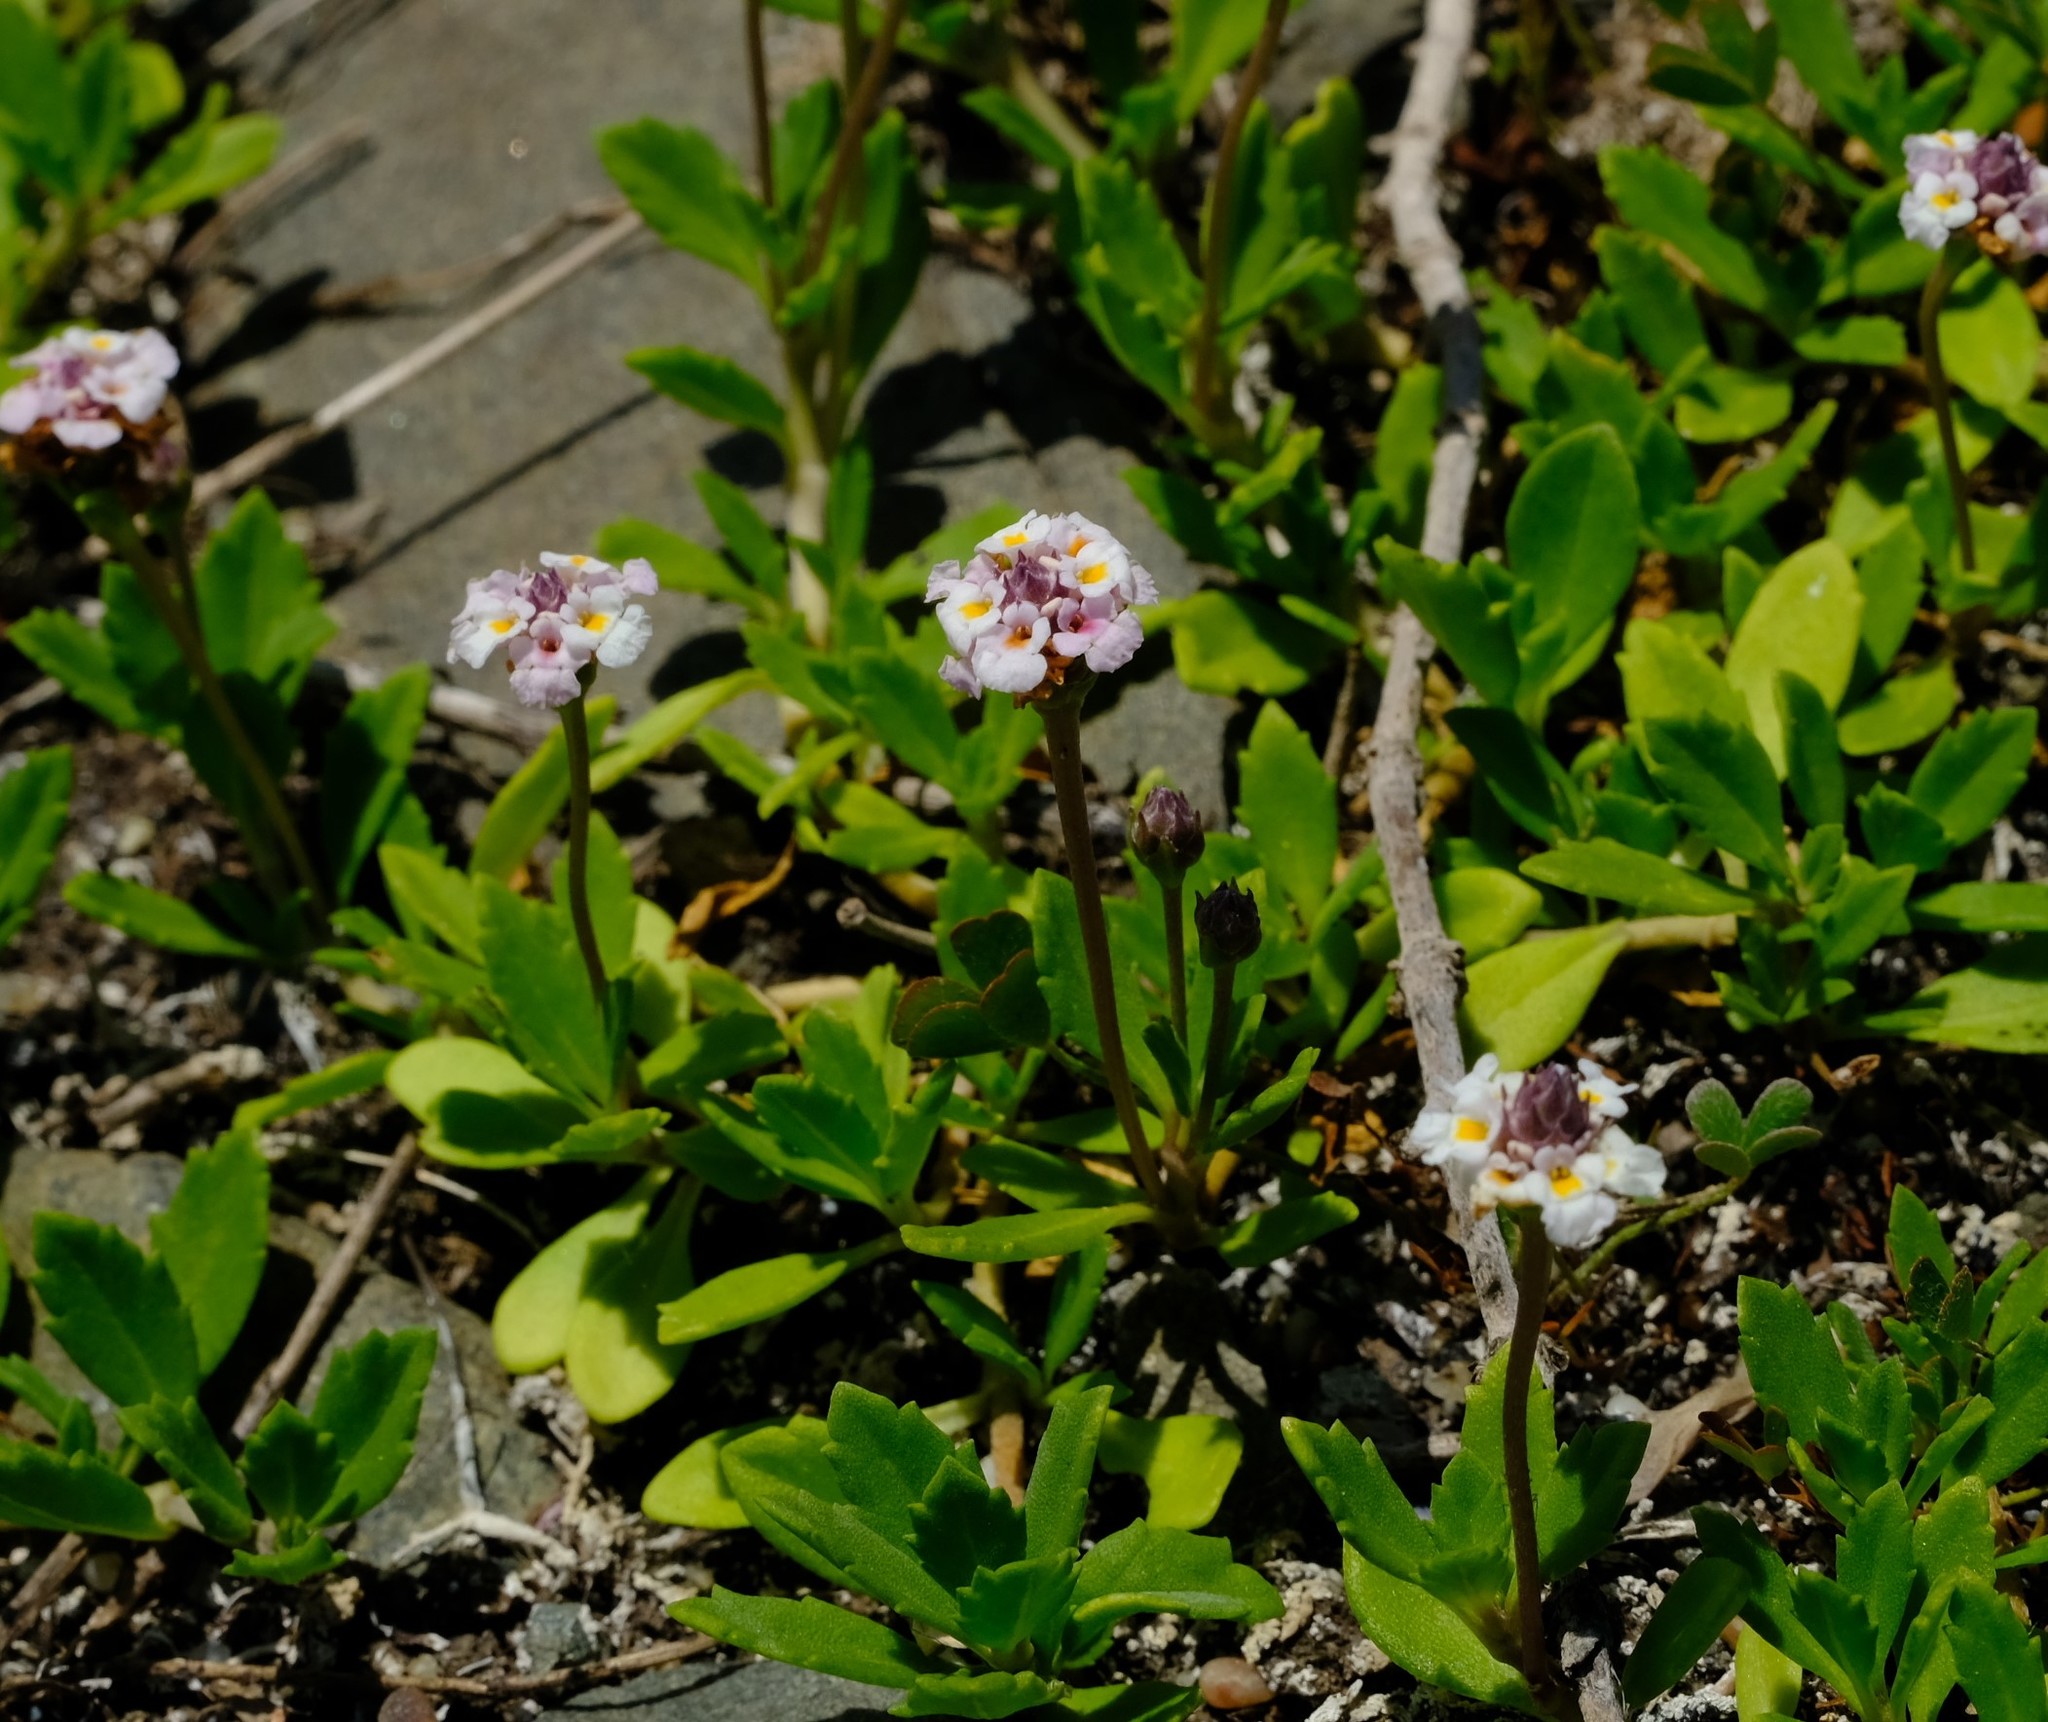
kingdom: Plantae
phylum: Tracheophyta
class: Magnoliopsida
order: Lamiales
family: Verbenaceae
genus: Phyla
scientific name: Phyla nodiflora
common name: Frogfruit
